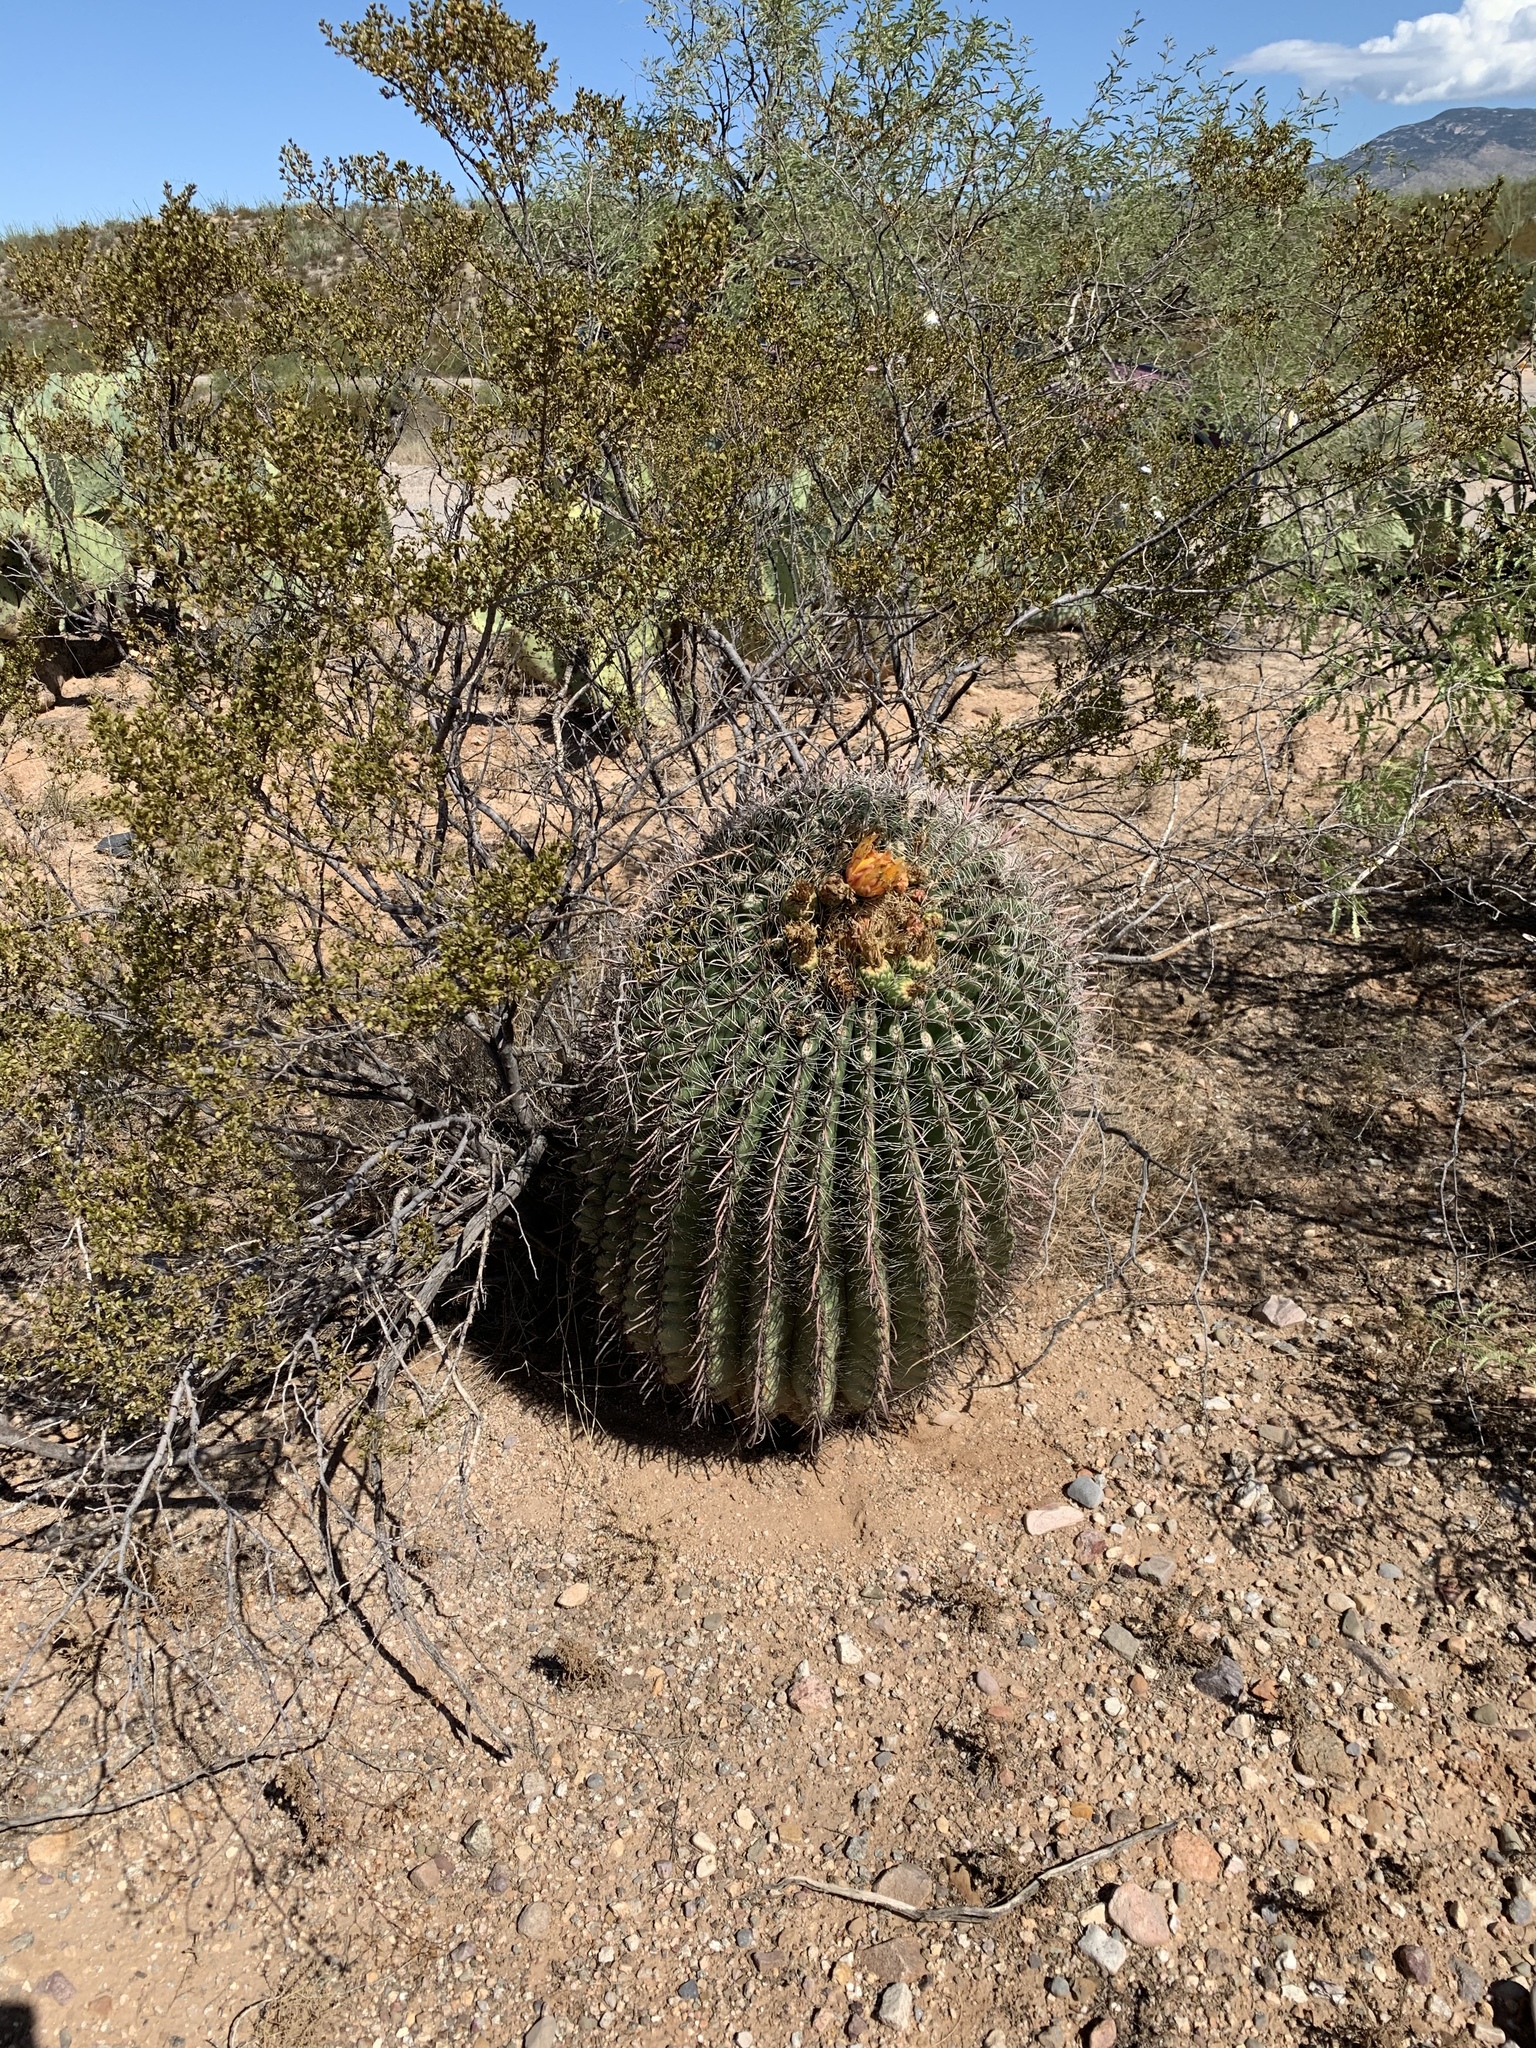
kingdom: Plantae
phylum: Tracheophyta
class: Magnoliopsida
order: Caryophyllales
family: Cactaceae
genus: Ferocactus
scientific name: Ferocactus wislizeni
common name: Candy barrel cactus
